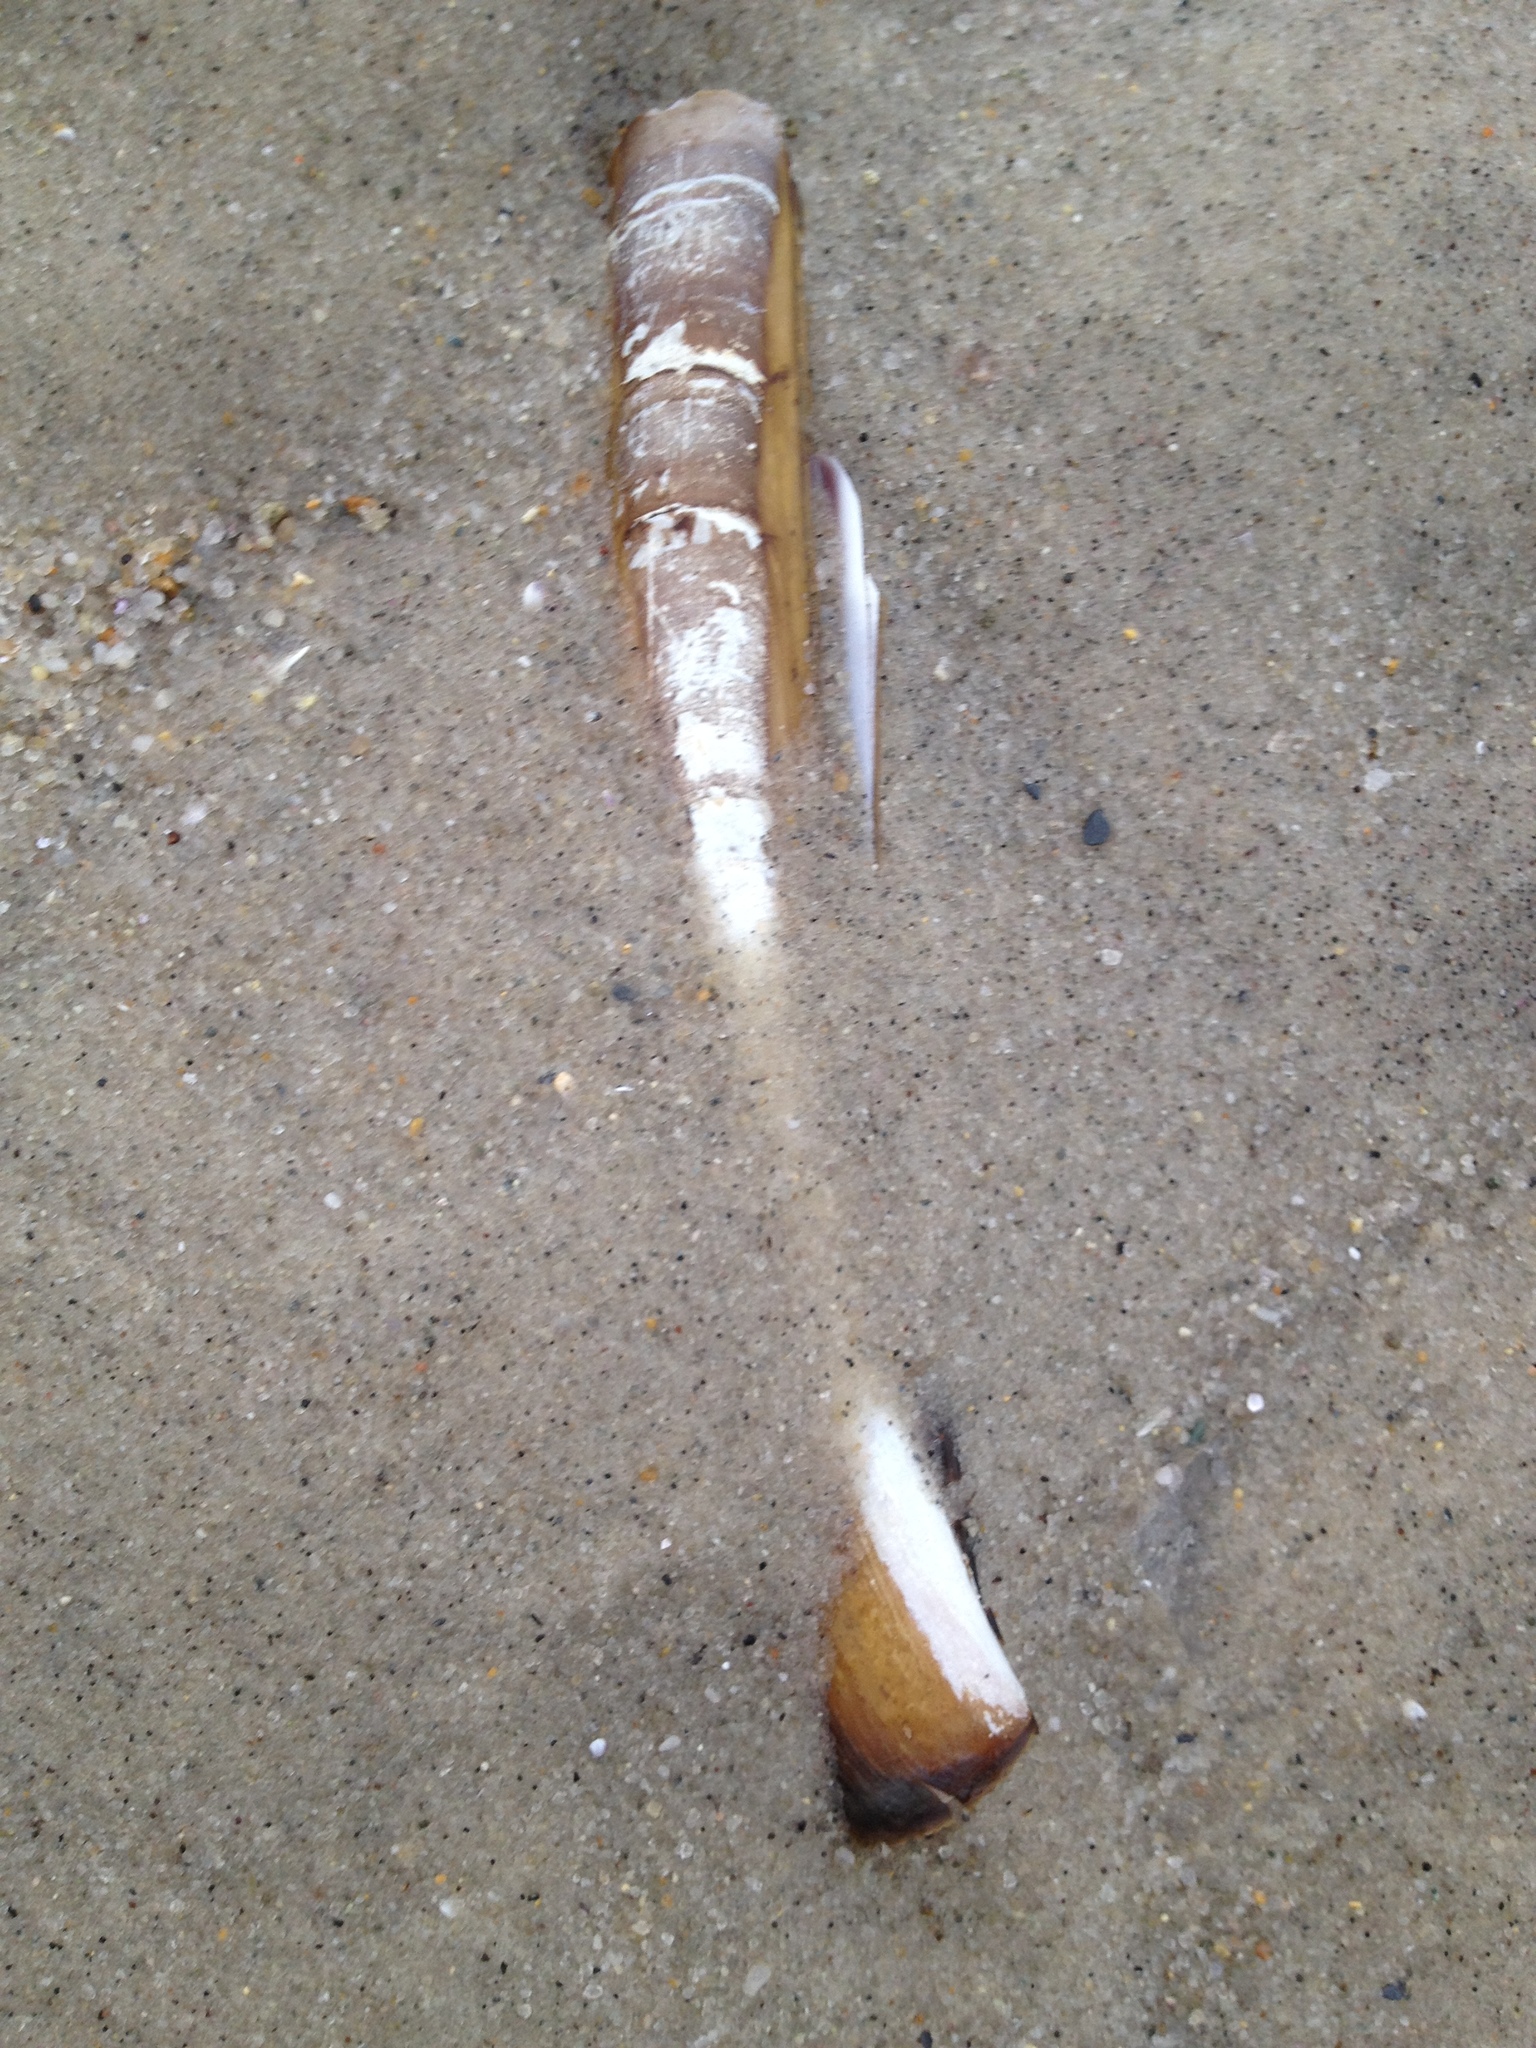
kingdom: Animalia
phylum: Mollusca
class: Bivalvia
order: Adapedonta
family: Pharidae
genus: Ensis
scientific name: Ensis leei
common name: American jack knife clam
